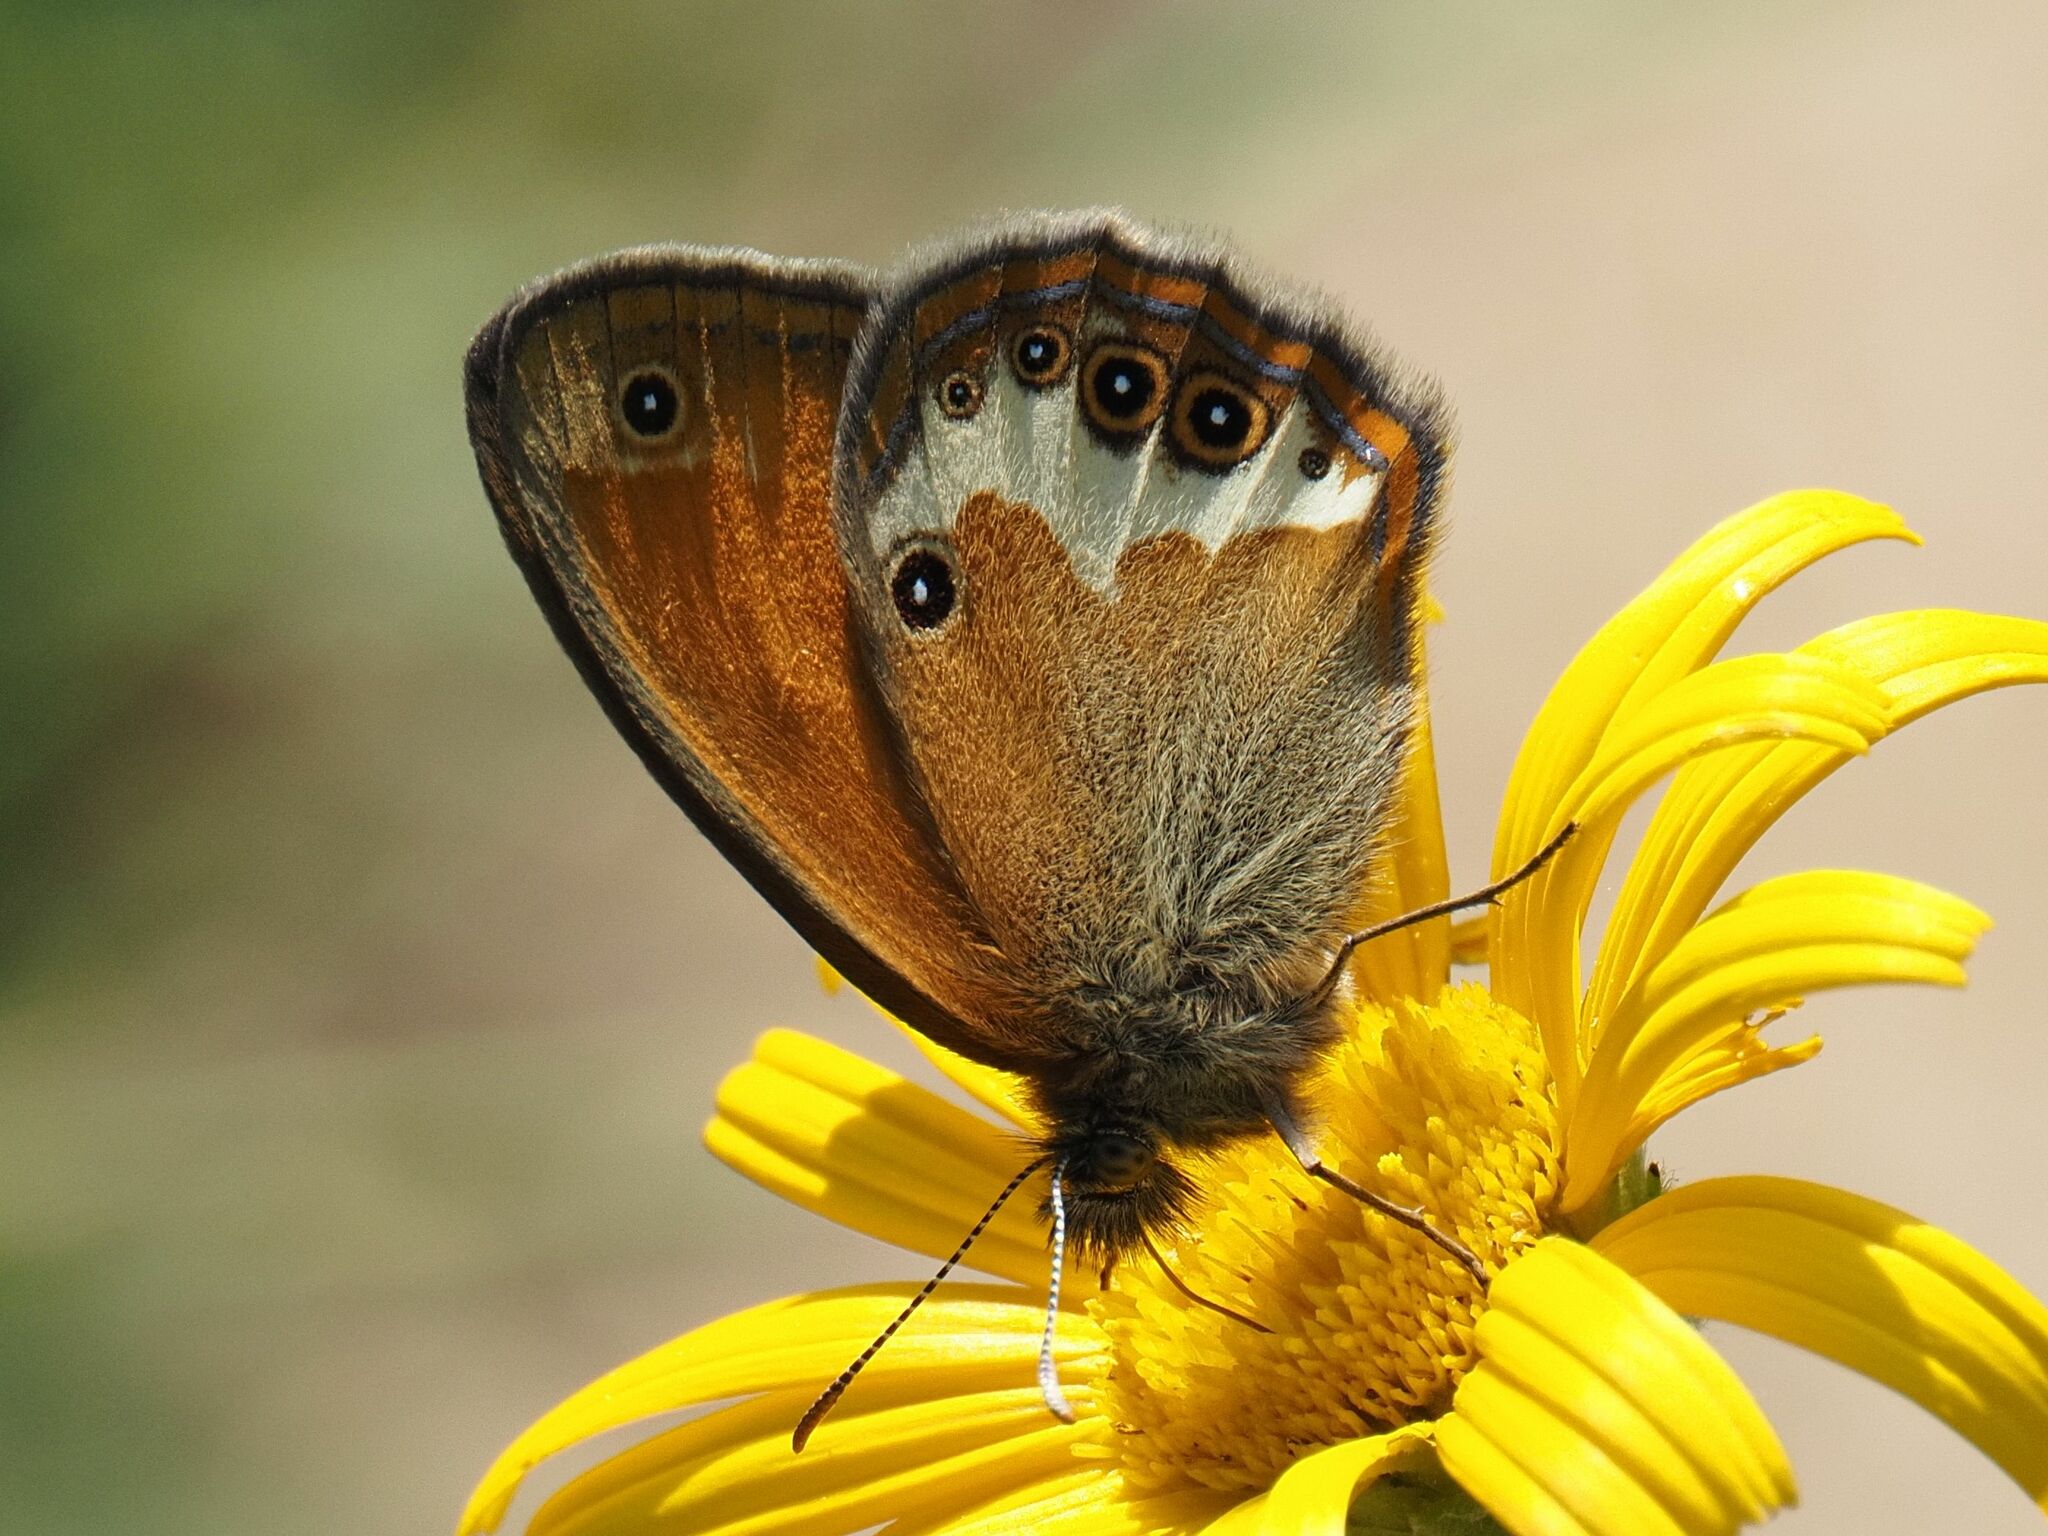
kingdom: Animalia
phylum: Arthropoda
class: Insecta
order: Lepidoptera
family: Nymphalidae
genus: Coenonympha
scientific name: Coenonympha arcania
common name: Pearly heath
